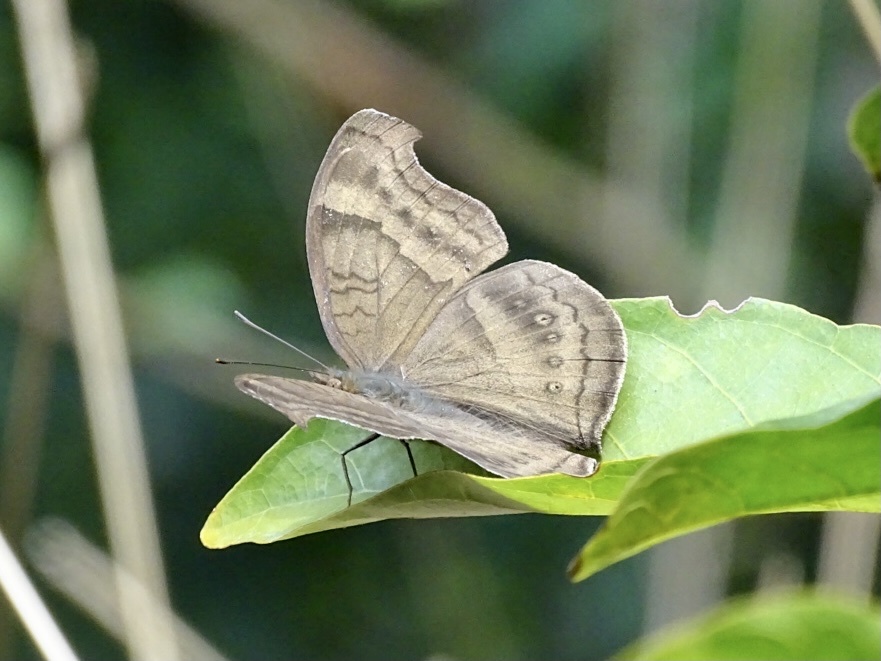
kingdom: Animalia
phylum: Arthropoda
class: Insecta
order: Lepidoptera
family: Nymphalidae
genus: Junonia
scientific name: Junonia iphita
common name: Chocolate pansy
